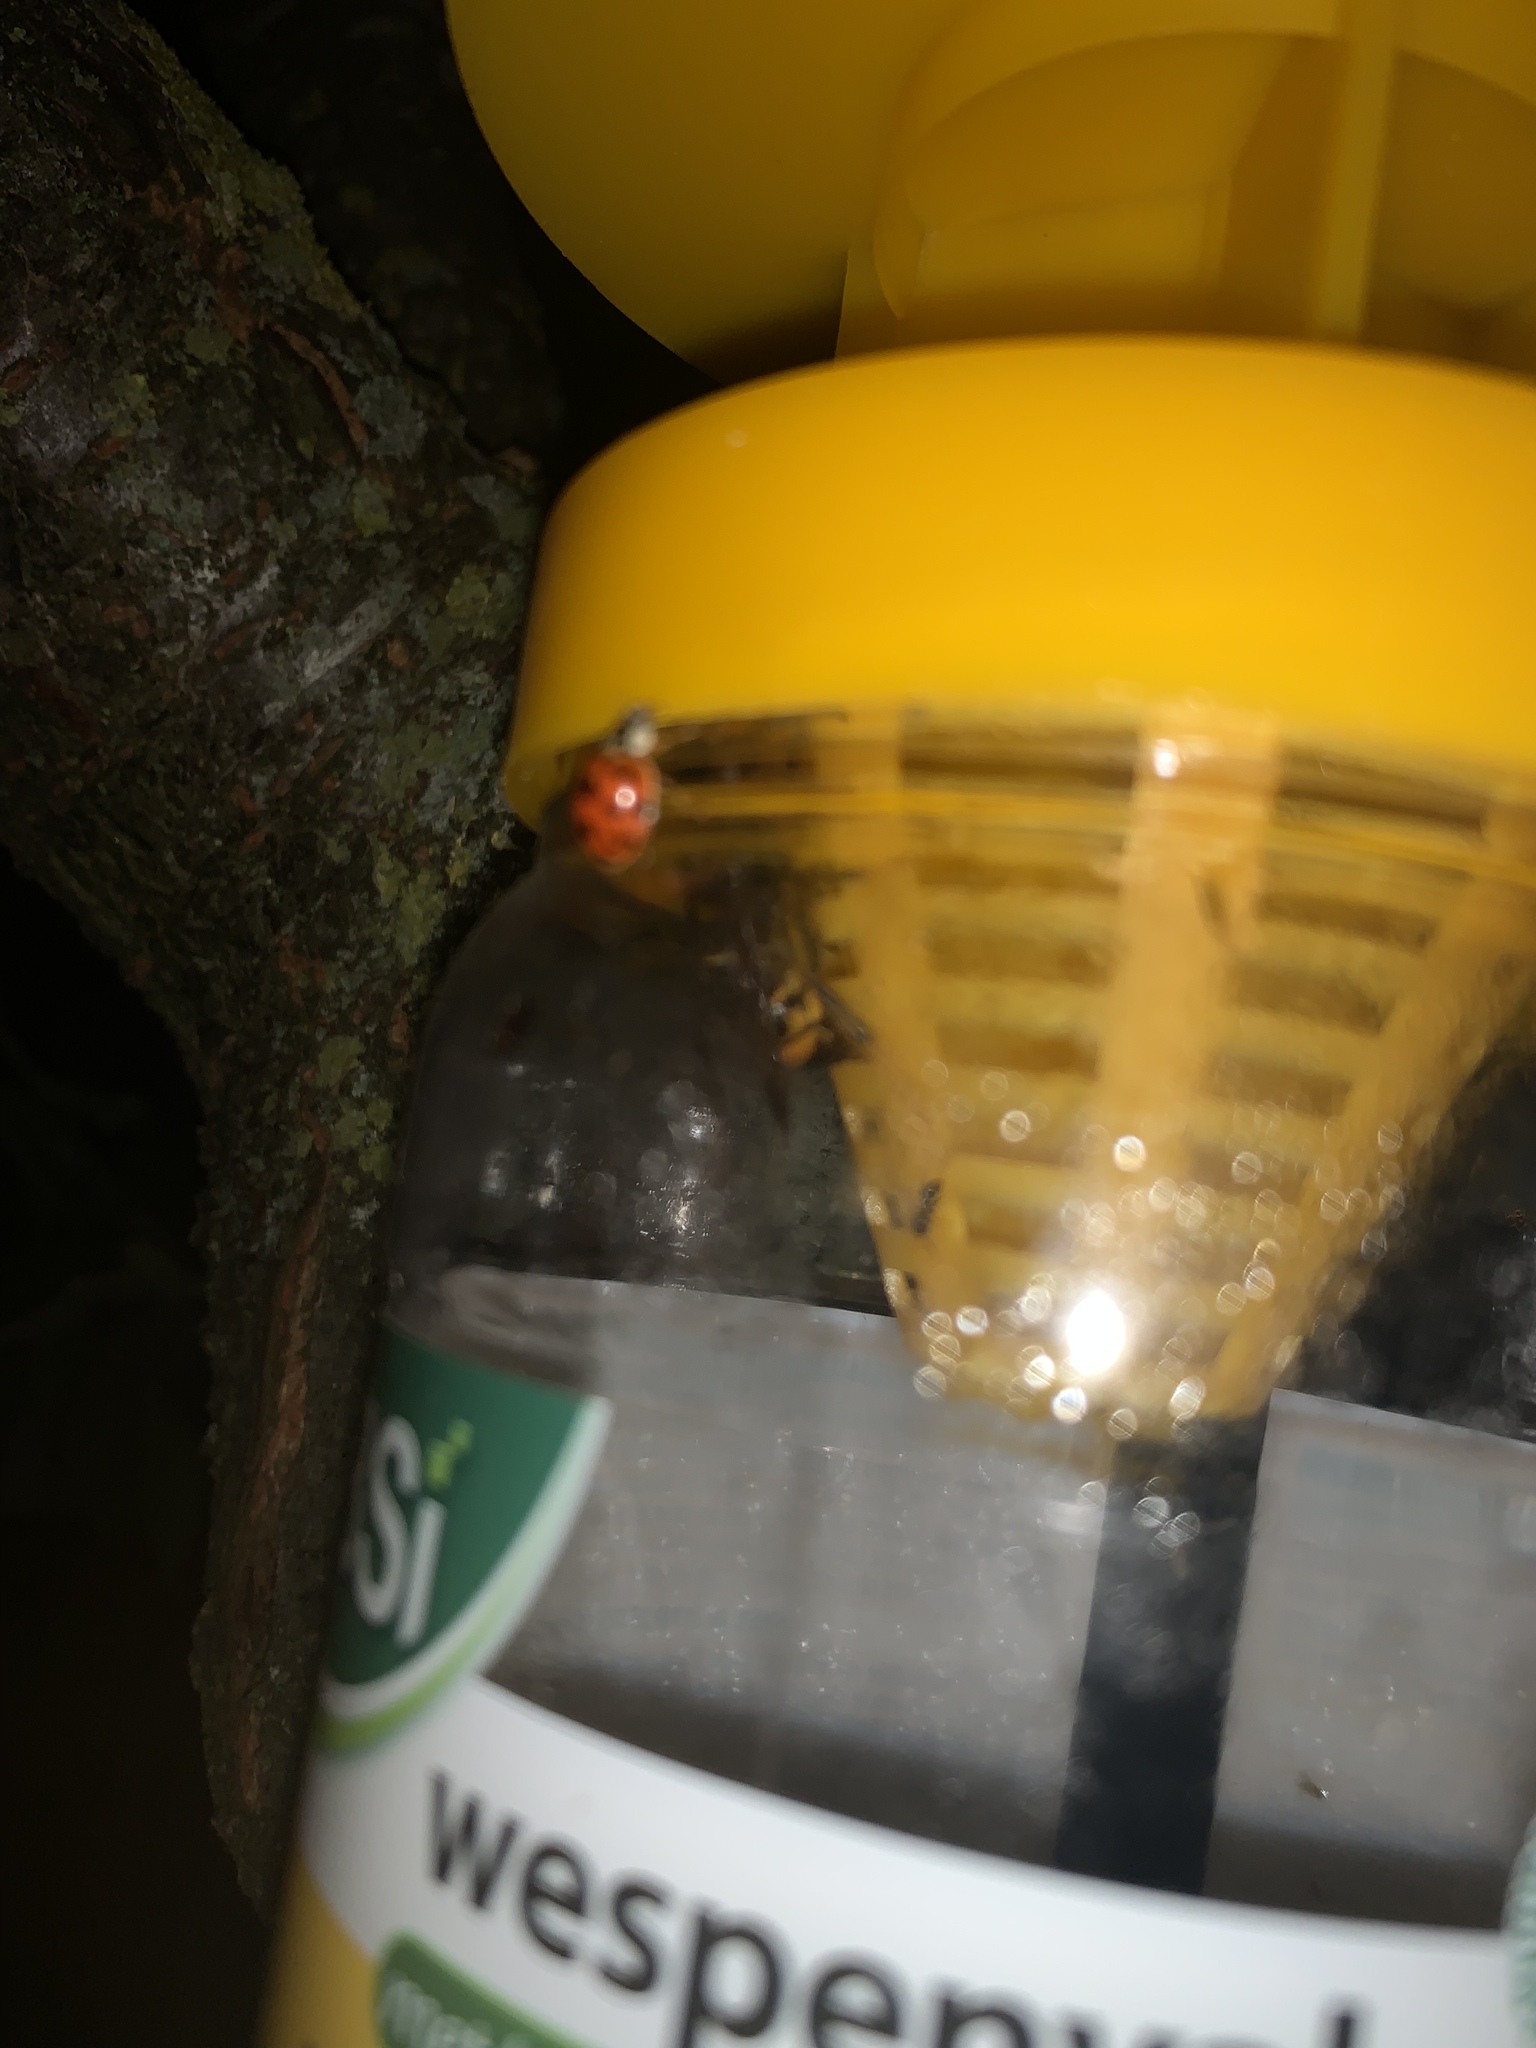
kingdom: Animalia
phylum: Arthropoda
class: Insecta
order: Hymenoptera
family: Vespidae
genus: Vespa
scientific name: Vespa velutina
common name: Asian hornet
